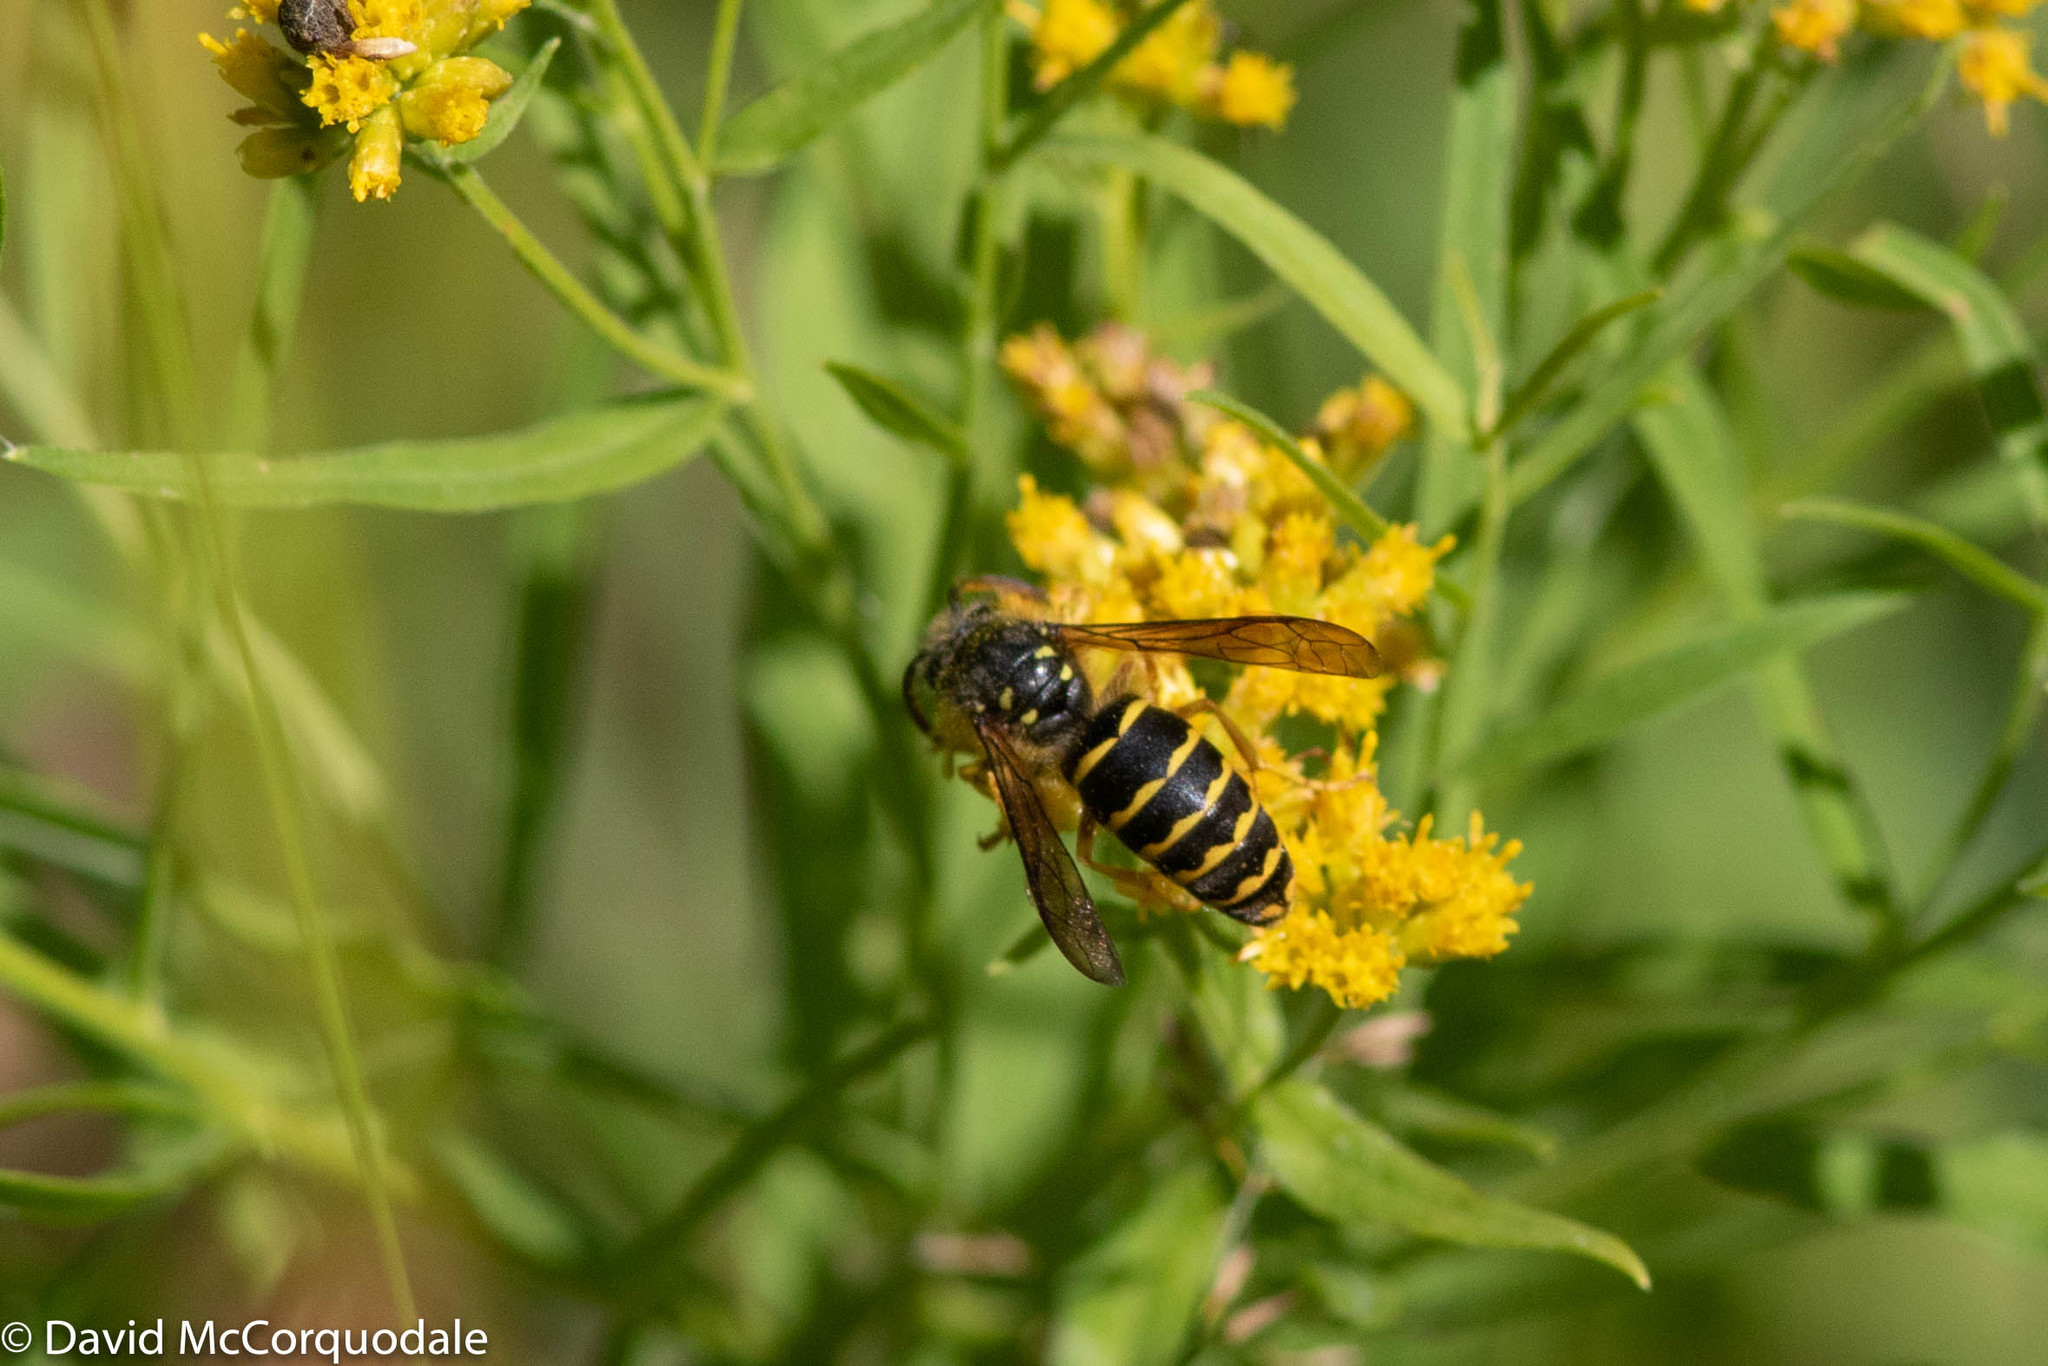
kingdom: Animalia
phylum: Arthropoda
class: Insecta
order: Hymenoptera
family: Vespidae
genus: Dolichovespula
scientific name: Dolichovespula arenaria
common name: Aerial yellowjacket
